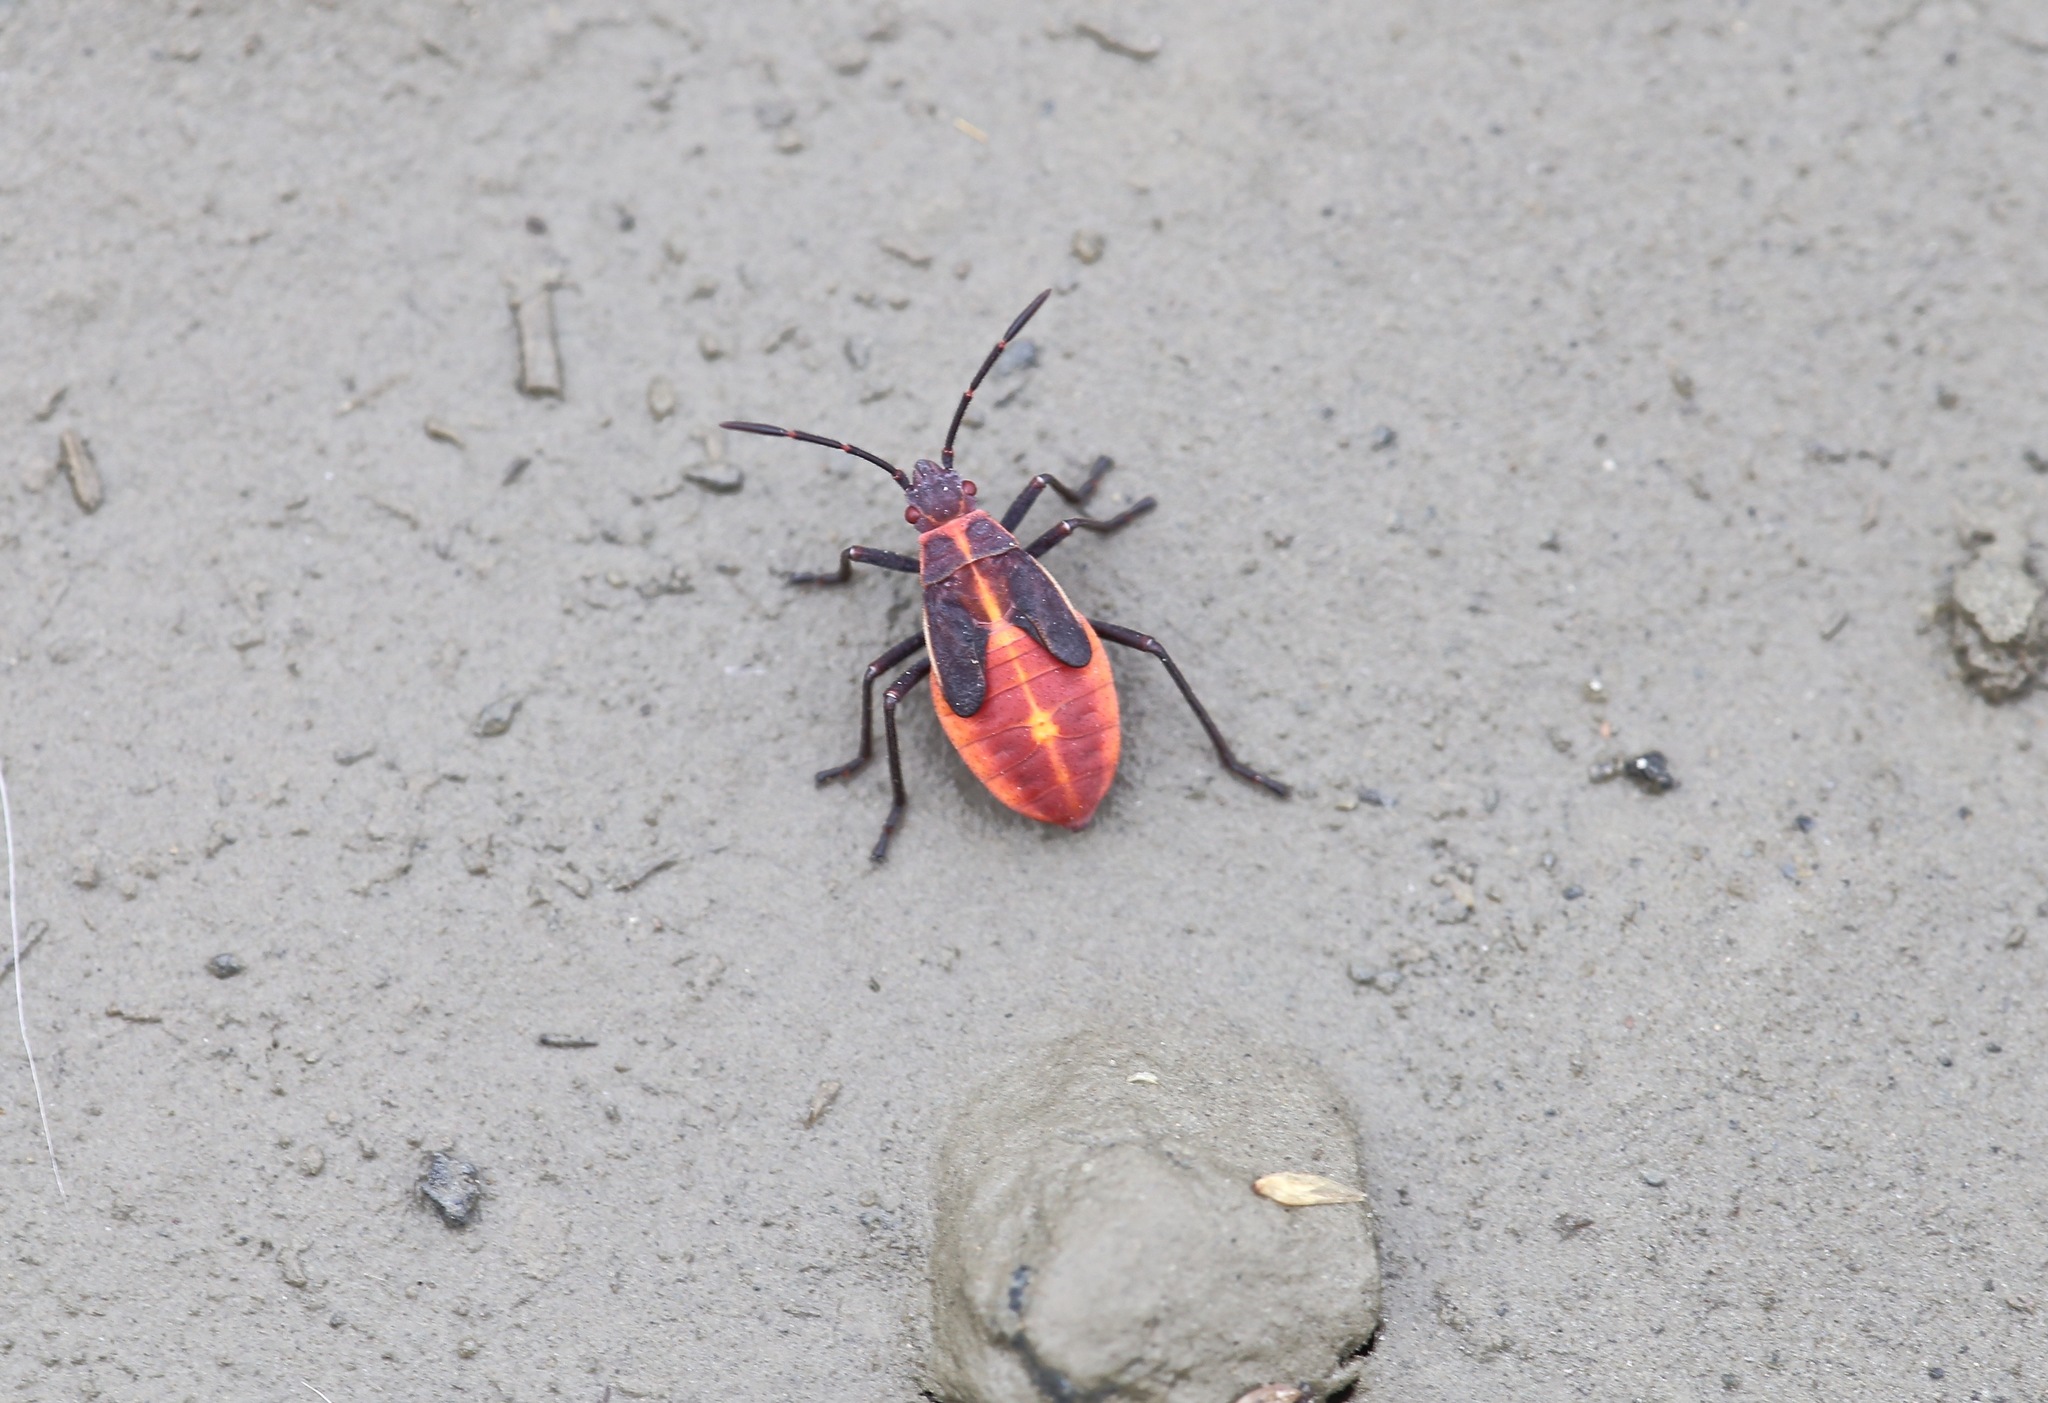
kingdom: Animalia
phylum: Arthropoda
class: Insecta
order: Hemiptera
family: Rhopalidae
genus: Boisea
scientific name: Boisea trivittata
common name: Boxelder bug
